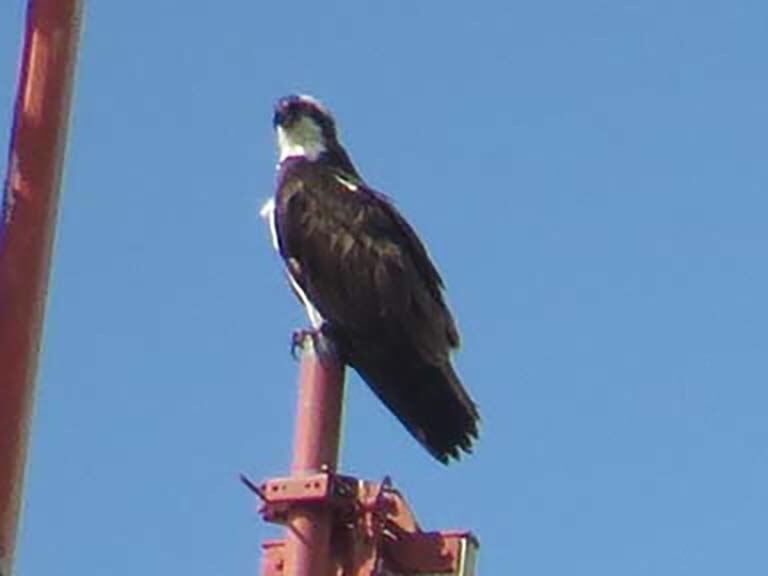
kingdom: Animalia
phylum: Chordata
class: Aves
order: Accipitriformes
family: Pandionidae
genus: Pandion
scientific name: Pandion haliaetus
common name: Osprey
